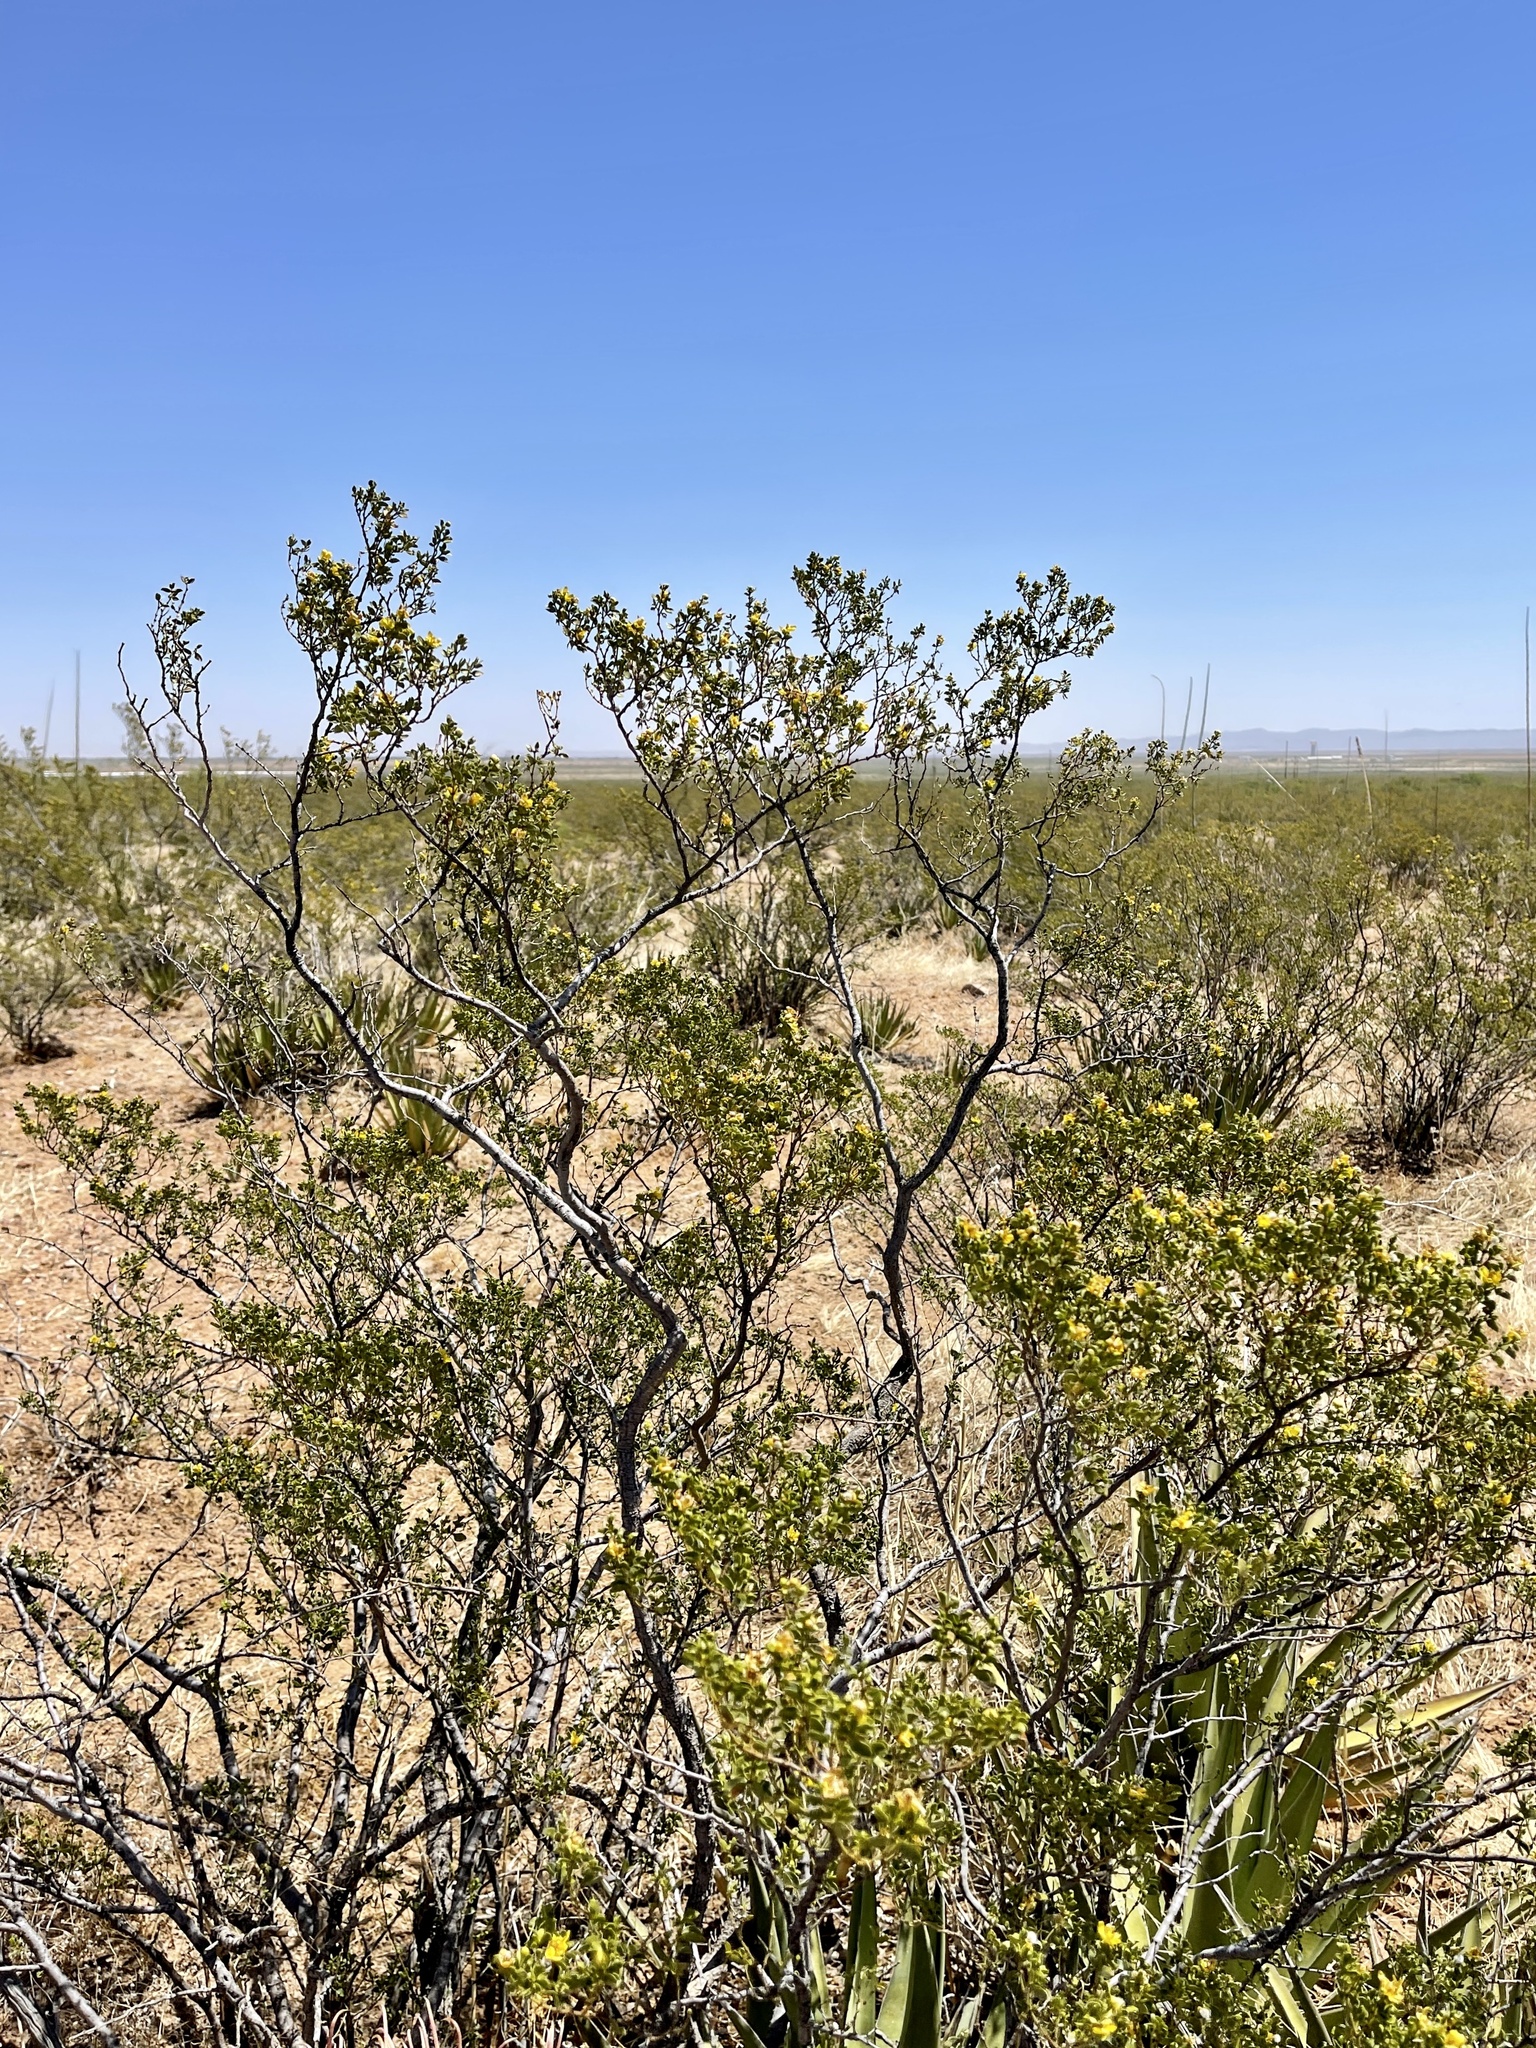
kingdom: Plantae
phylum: Tracheophyta
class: Magnoliopsida
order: Zygophyllales
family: Zygophyllaceae
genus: Larrea
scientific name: Larrea tridentata
